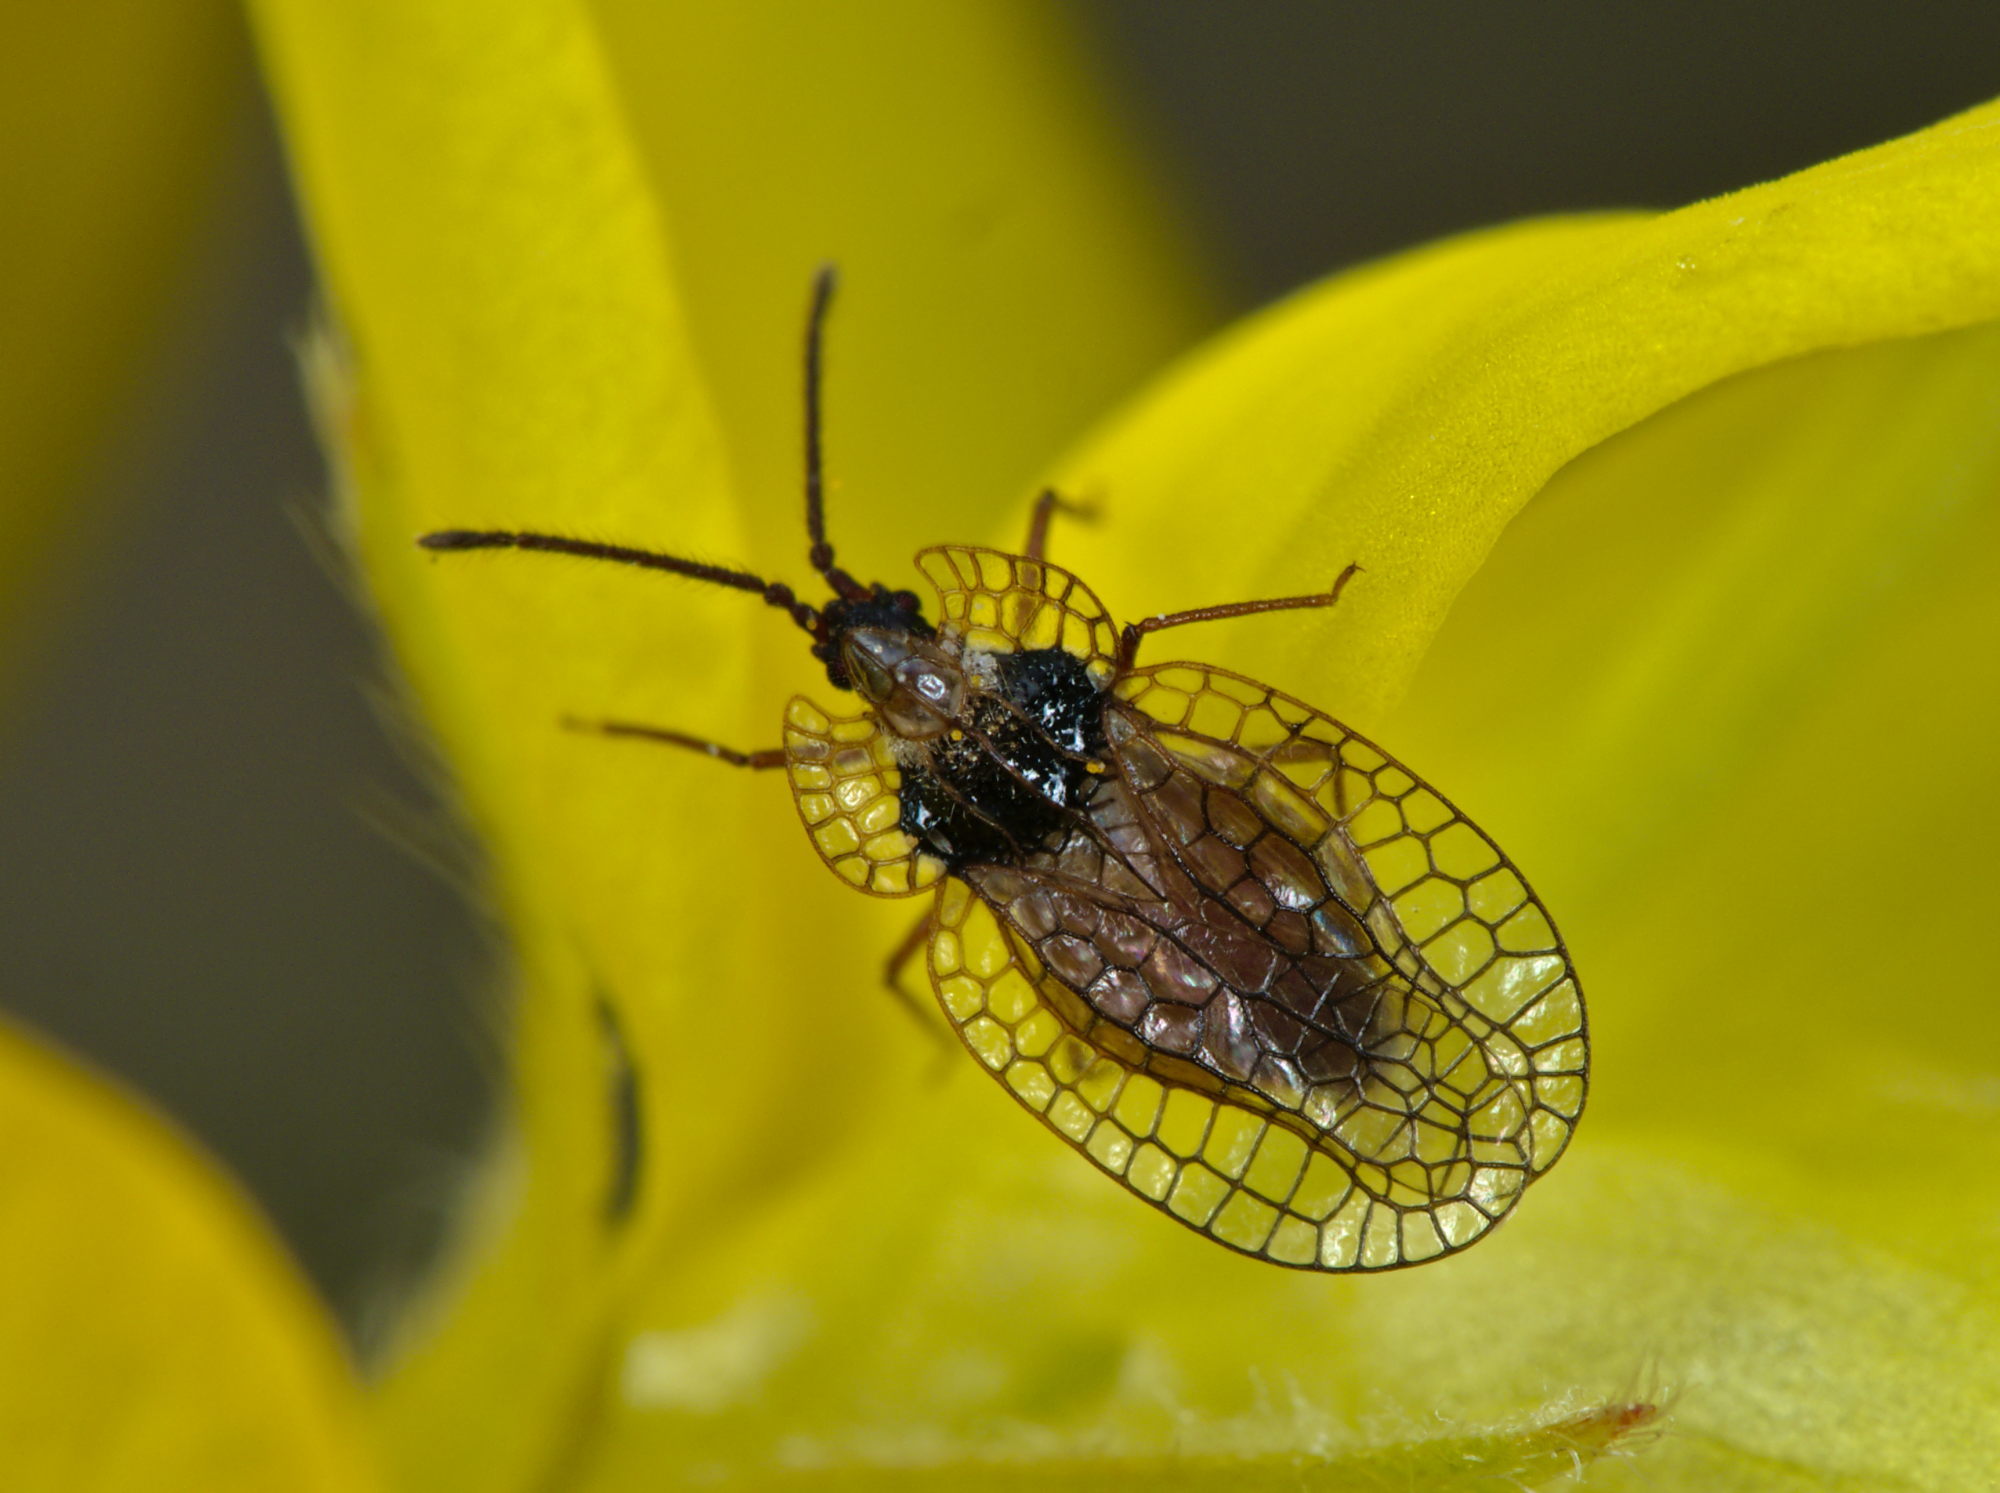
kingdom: Animalia
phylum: Arthropoda
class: Insecta
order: Hemiptera
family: Tingidae
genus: Derephysia
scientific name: Derephysia foliacea
